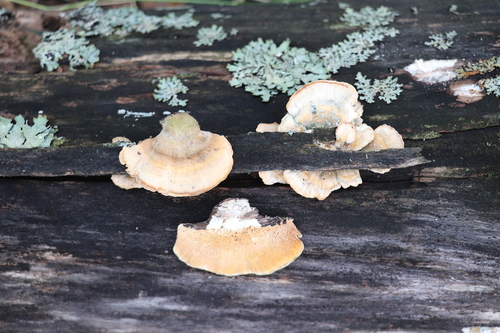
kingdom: Fungi
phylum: Basidiomycota
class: Agaricomycetes
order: Polyporales
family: Polyporaceae
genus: Trametes
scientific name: Trametes ochracea
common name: Ochre bracket
